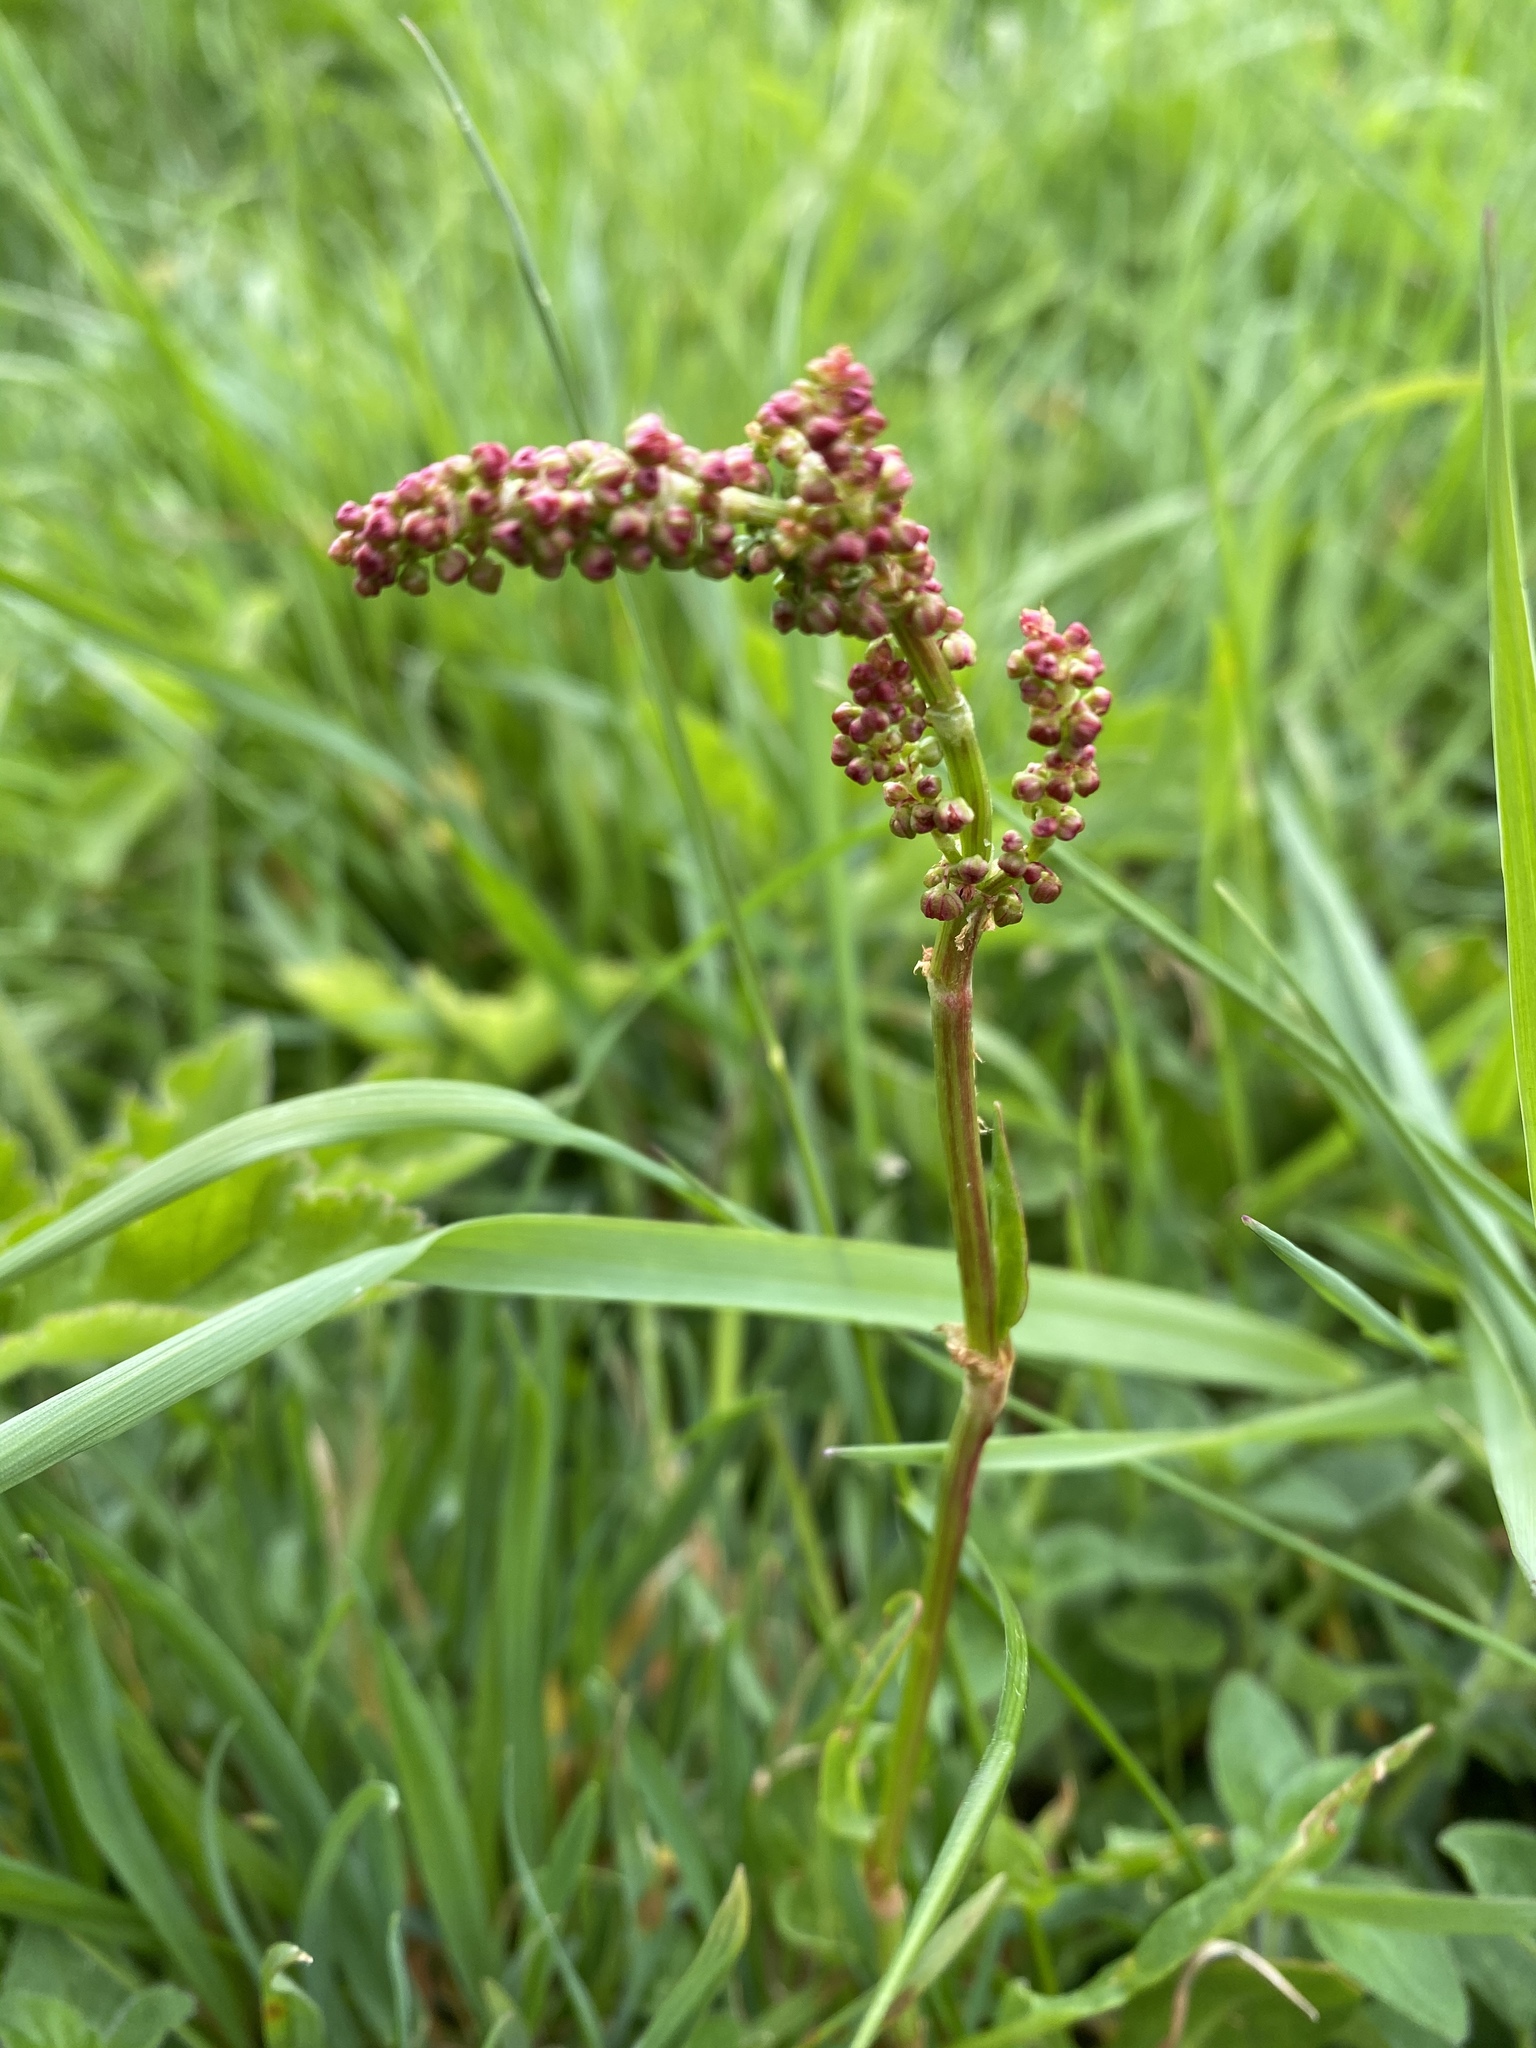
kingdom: Plantae
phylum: Tracheophyta
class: Magnoliopsida
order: Caryophyllales
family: Polygonaceae
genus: Rumex
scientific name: Rumex acetosa
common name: Garden sorrel
